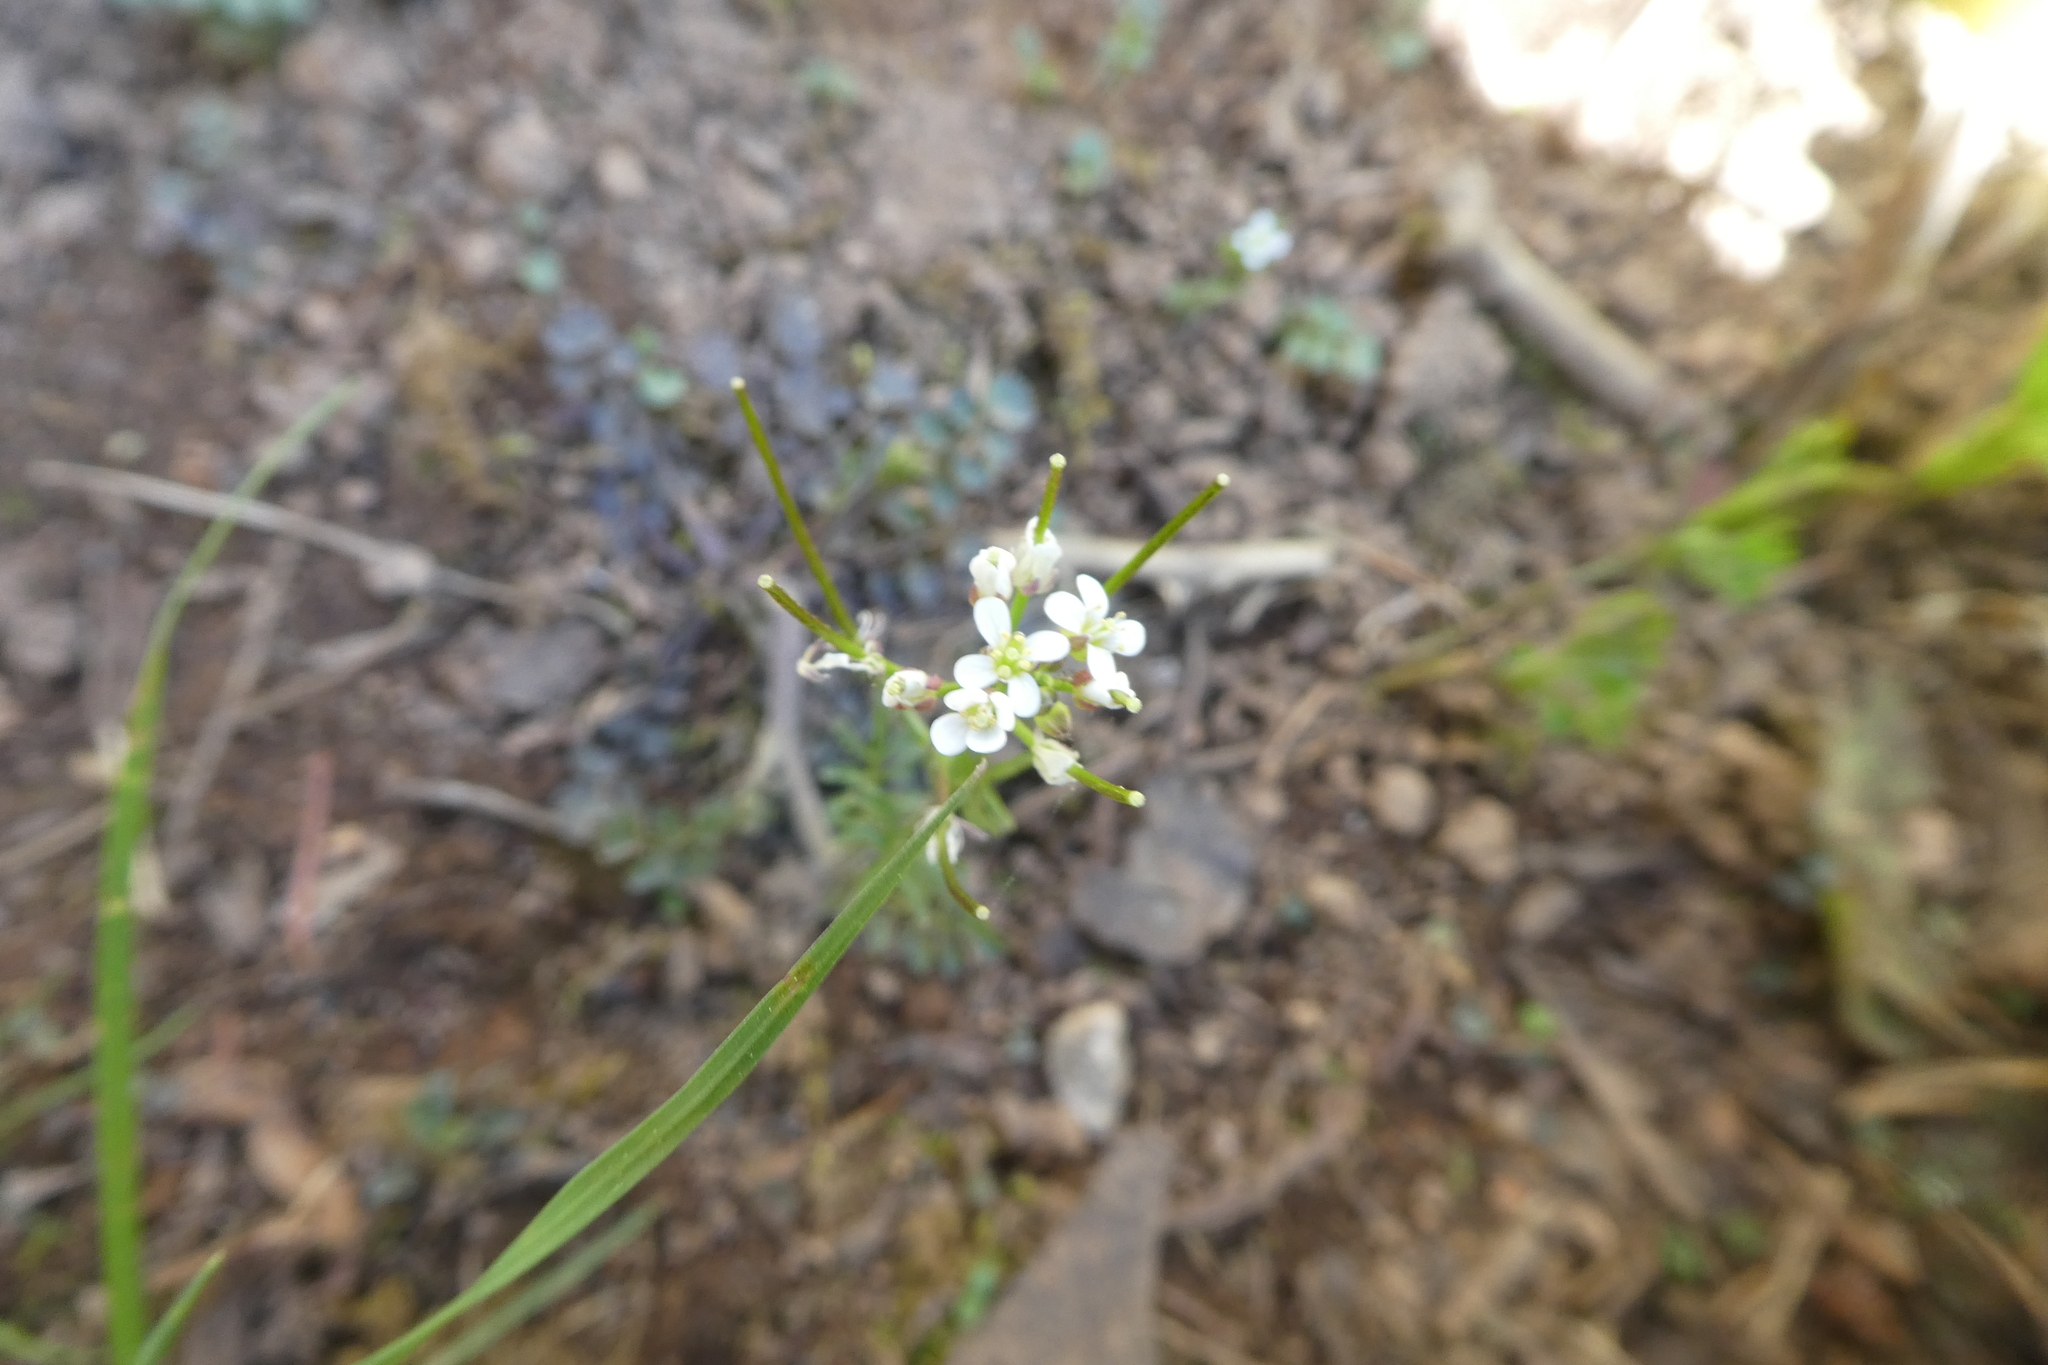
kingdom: Plantae
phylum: Tracheophyta
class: Magnoliopsida
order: Brassicales
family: Brassicaceae
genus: Cardamine
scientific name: Cardamine flexuosa
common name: Woodland bittercress
